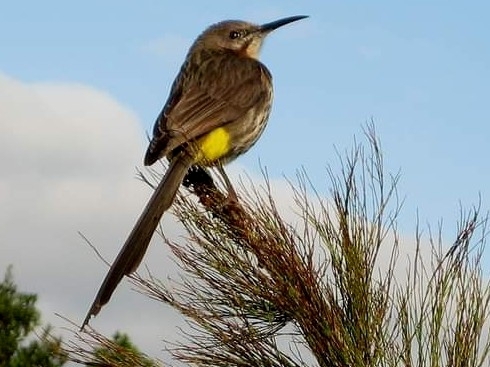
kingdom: Animalia
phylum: Chordata
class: Aves
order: Passeriformes
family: Promeropidae
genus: Promerops
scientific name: Promerops cafer
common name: Cape sugarbird
